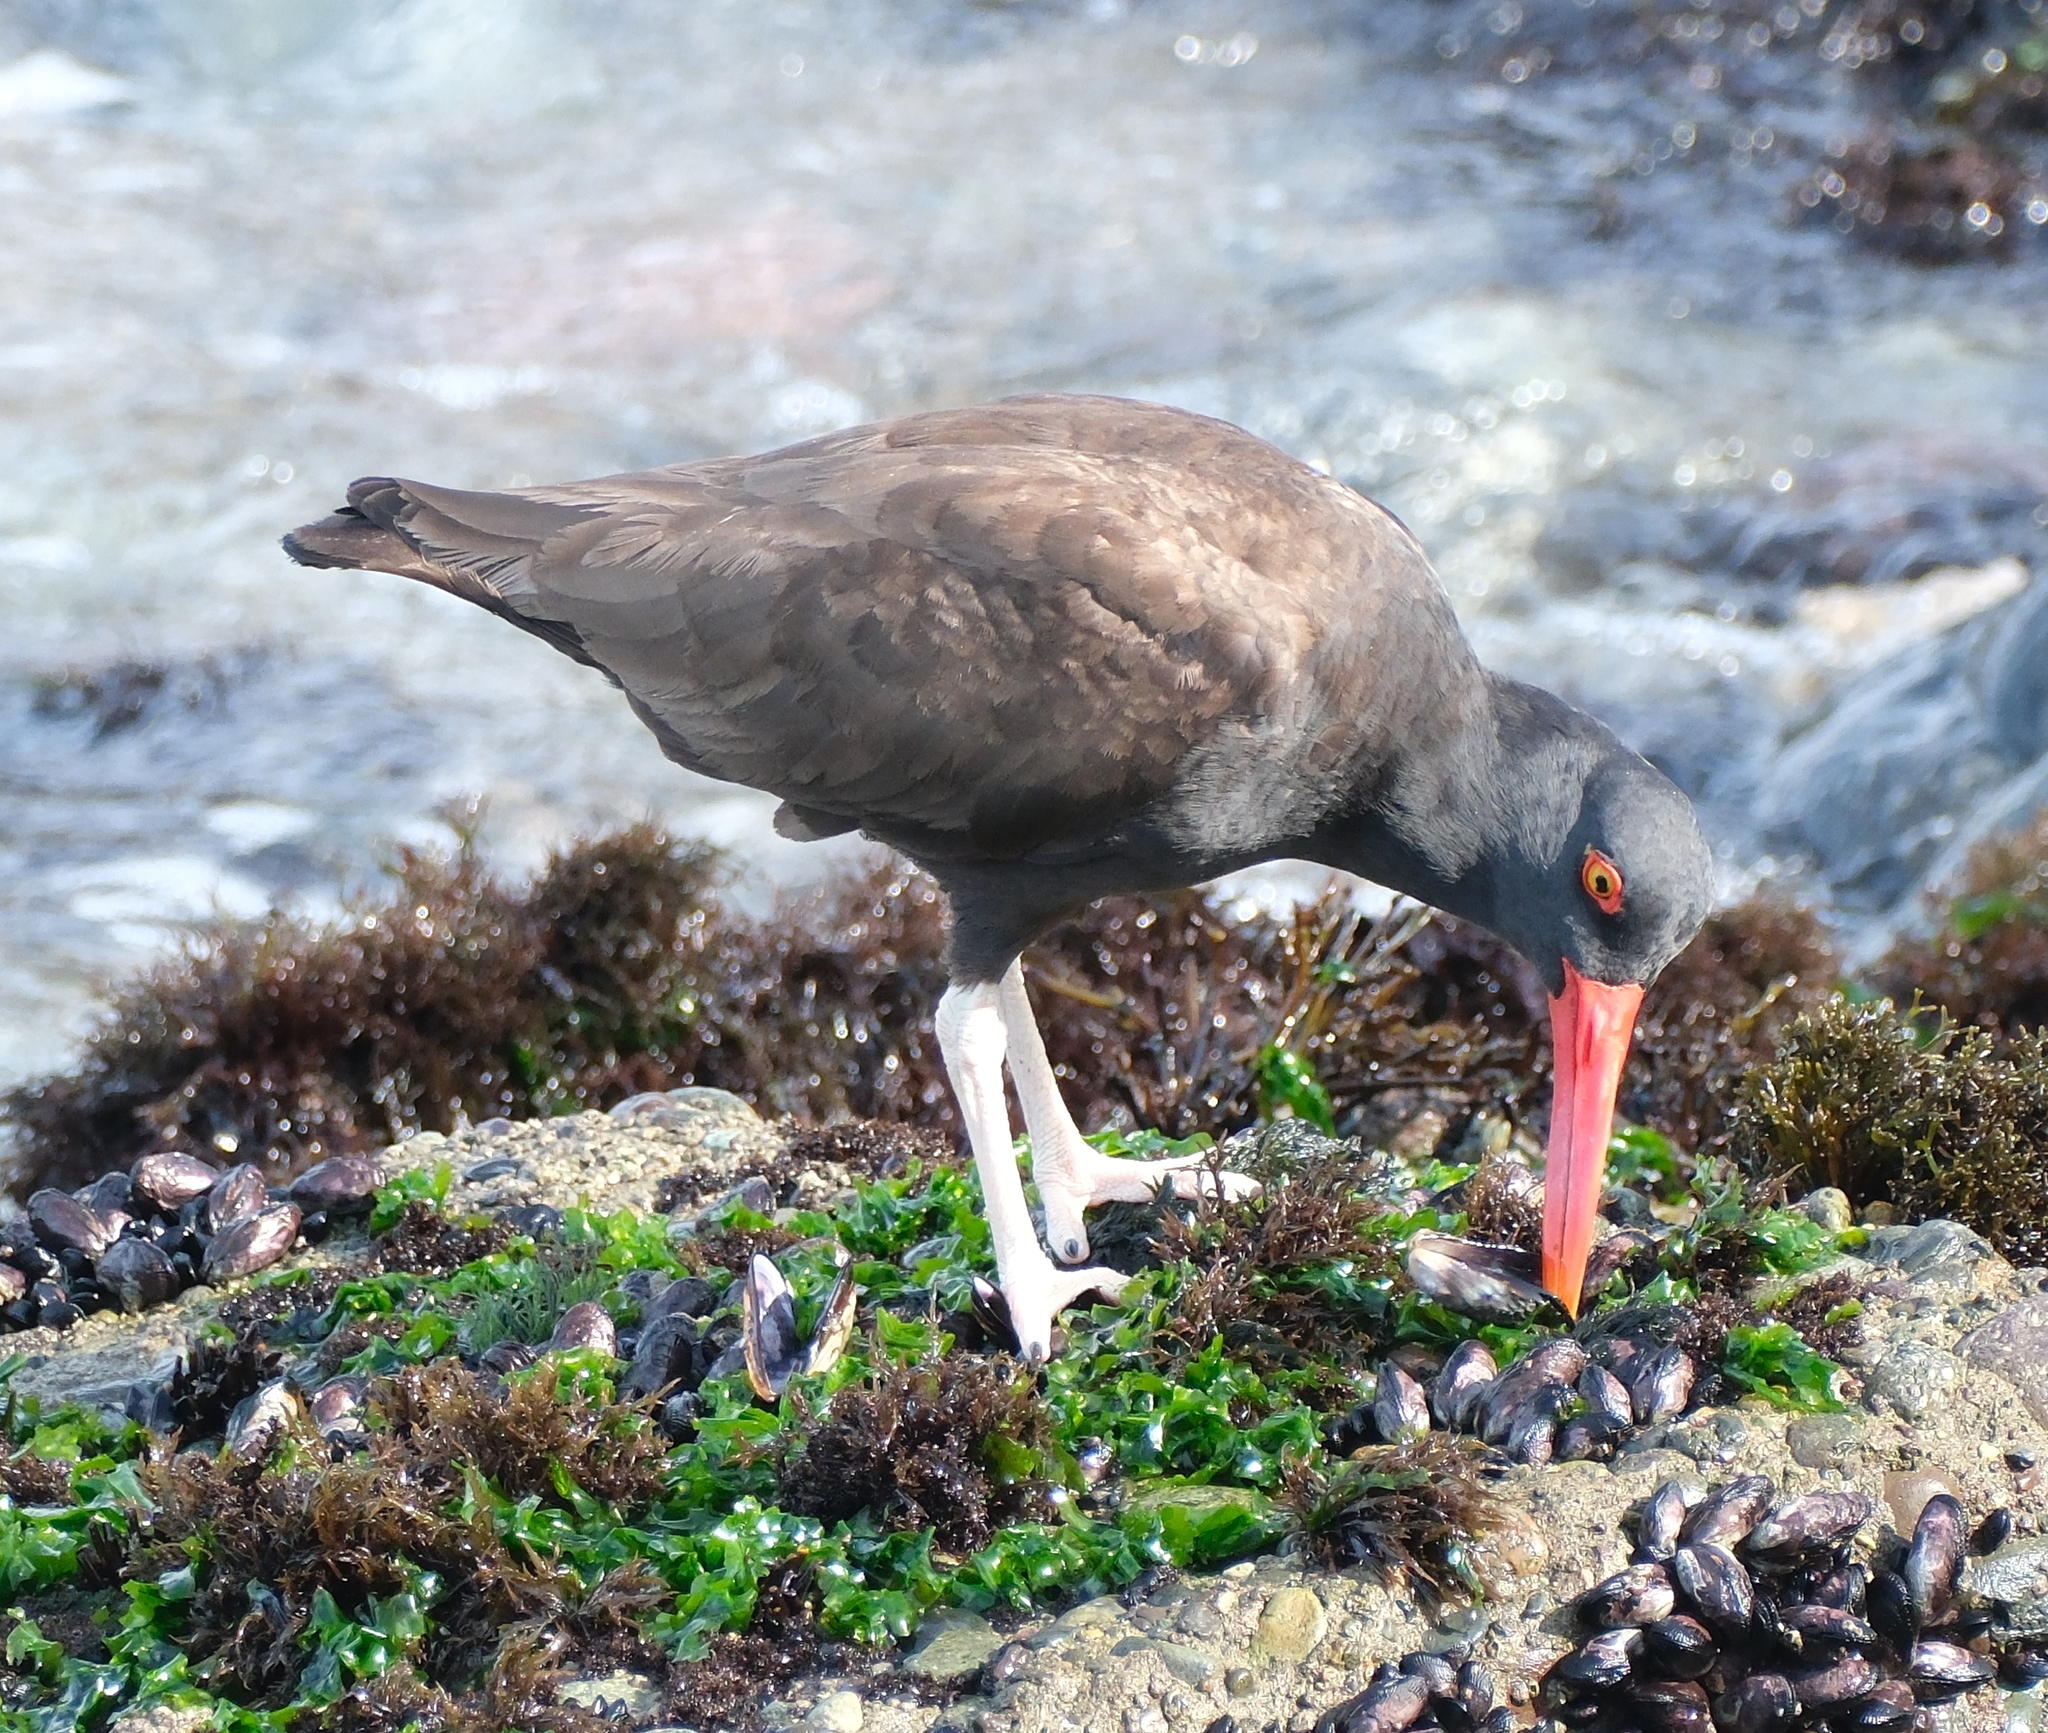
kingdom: Animalia
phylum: Chordata
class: Aves
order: Charadriiformes
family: Haematopodidae
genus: Haematopus
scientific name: Haematopus ater
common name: Blackish oystercatcher
